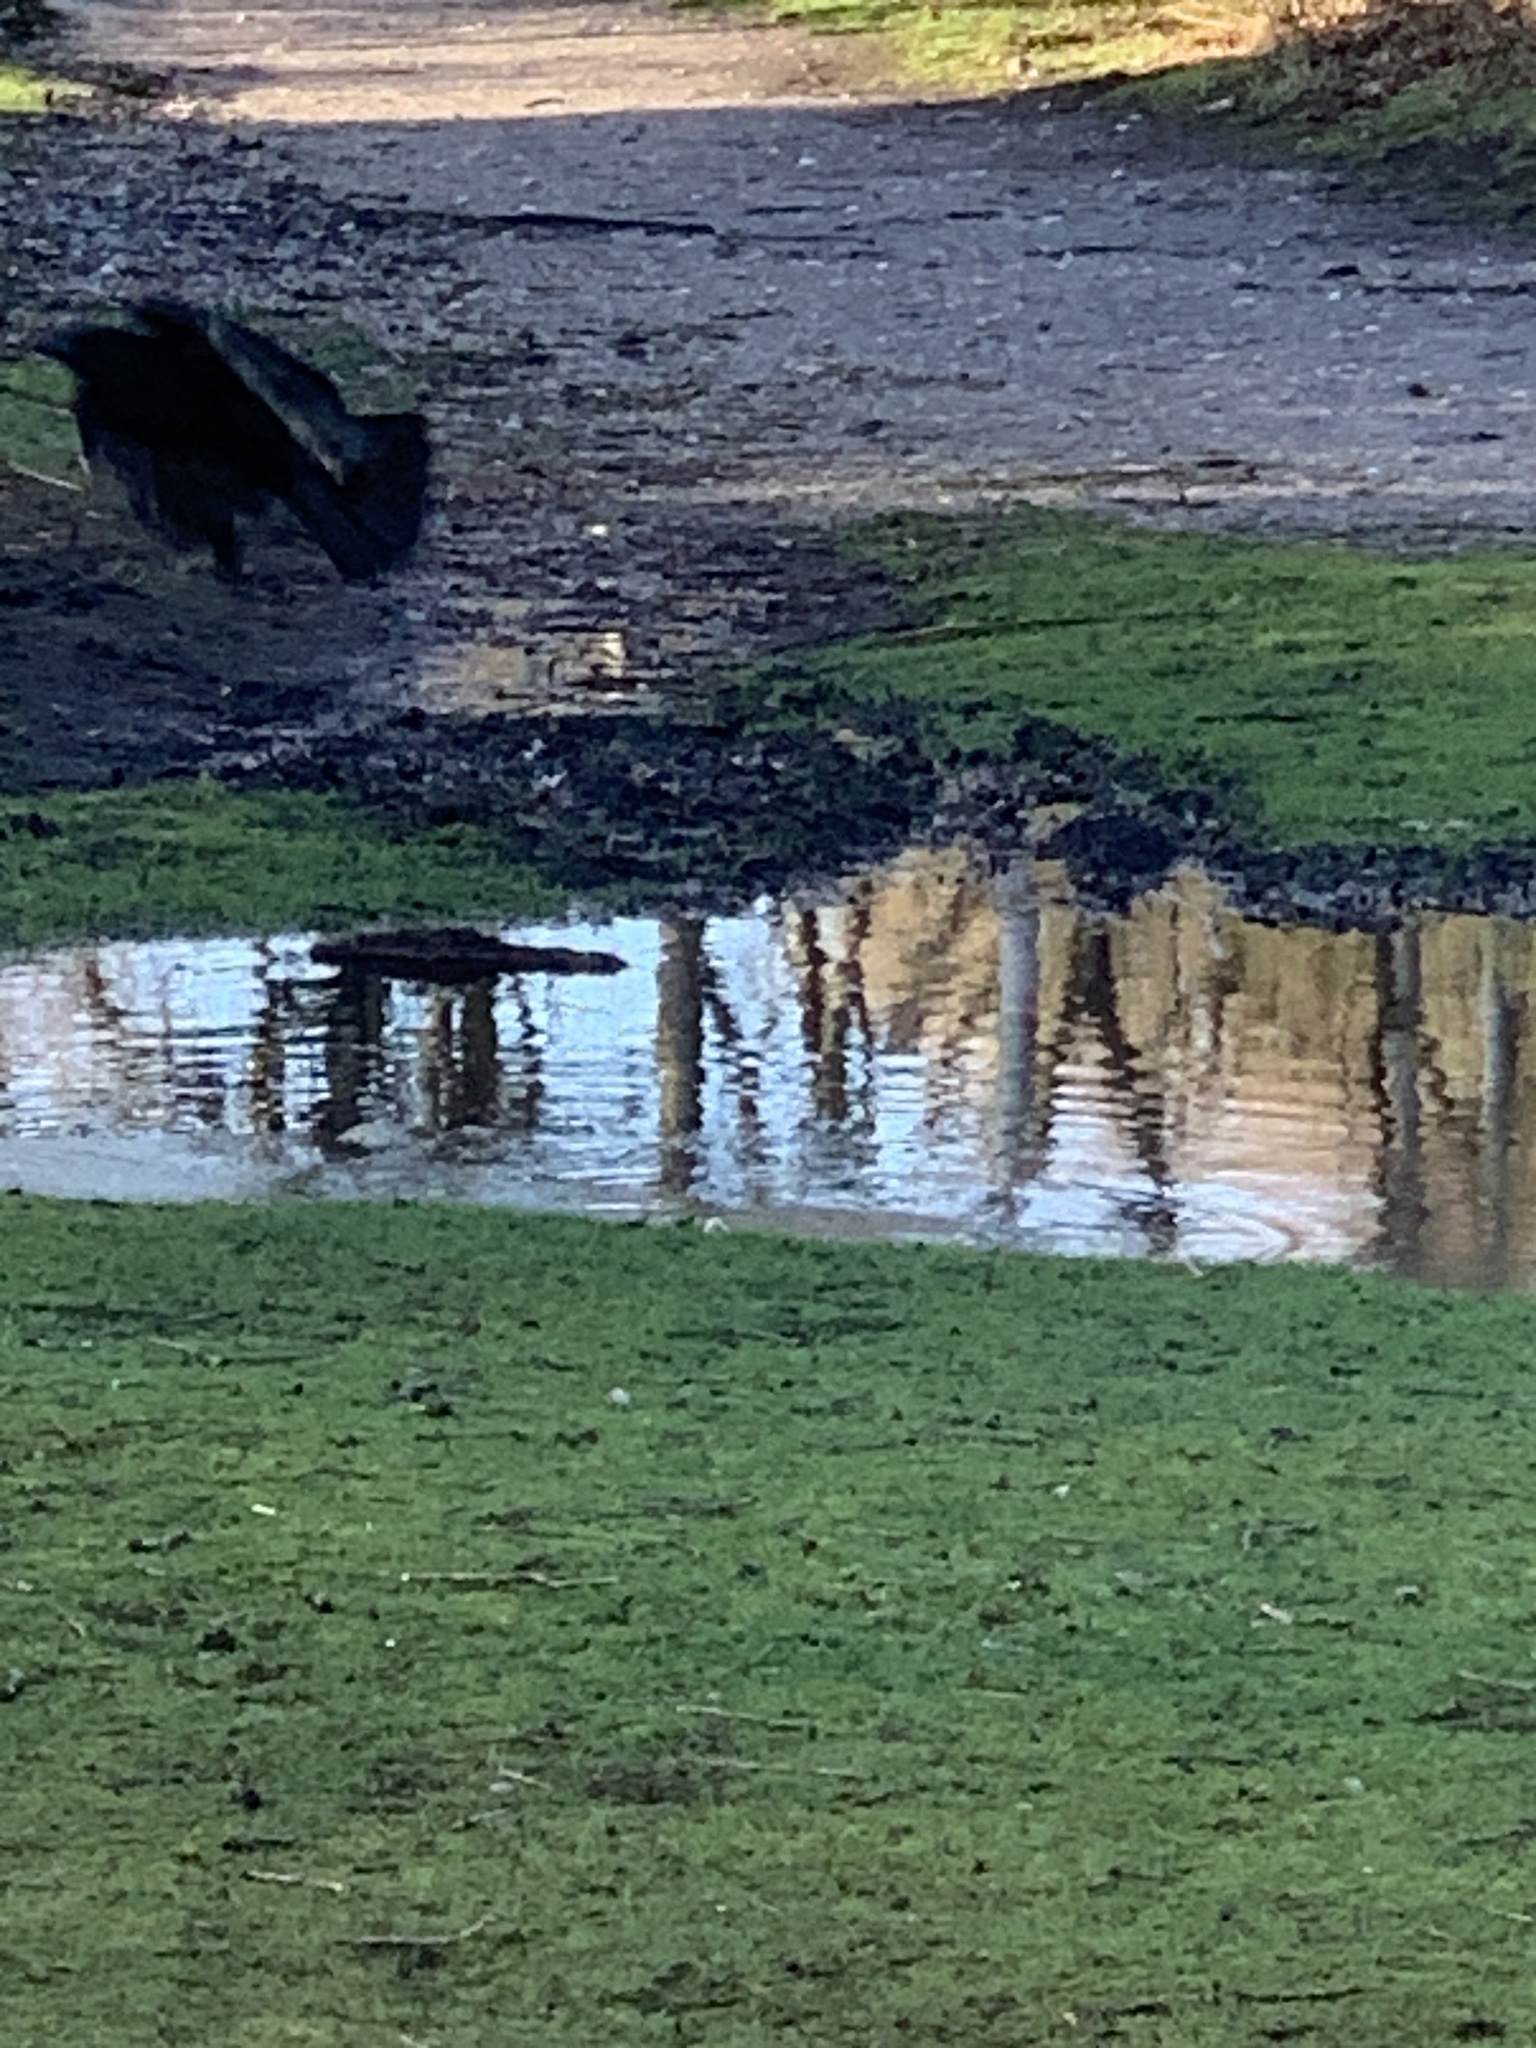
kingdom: Animalia
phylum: Chordata
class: Aves
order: Passeriformes
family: Corvidae
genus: Corvus
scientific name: Corvus corone
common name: Carrion crow
